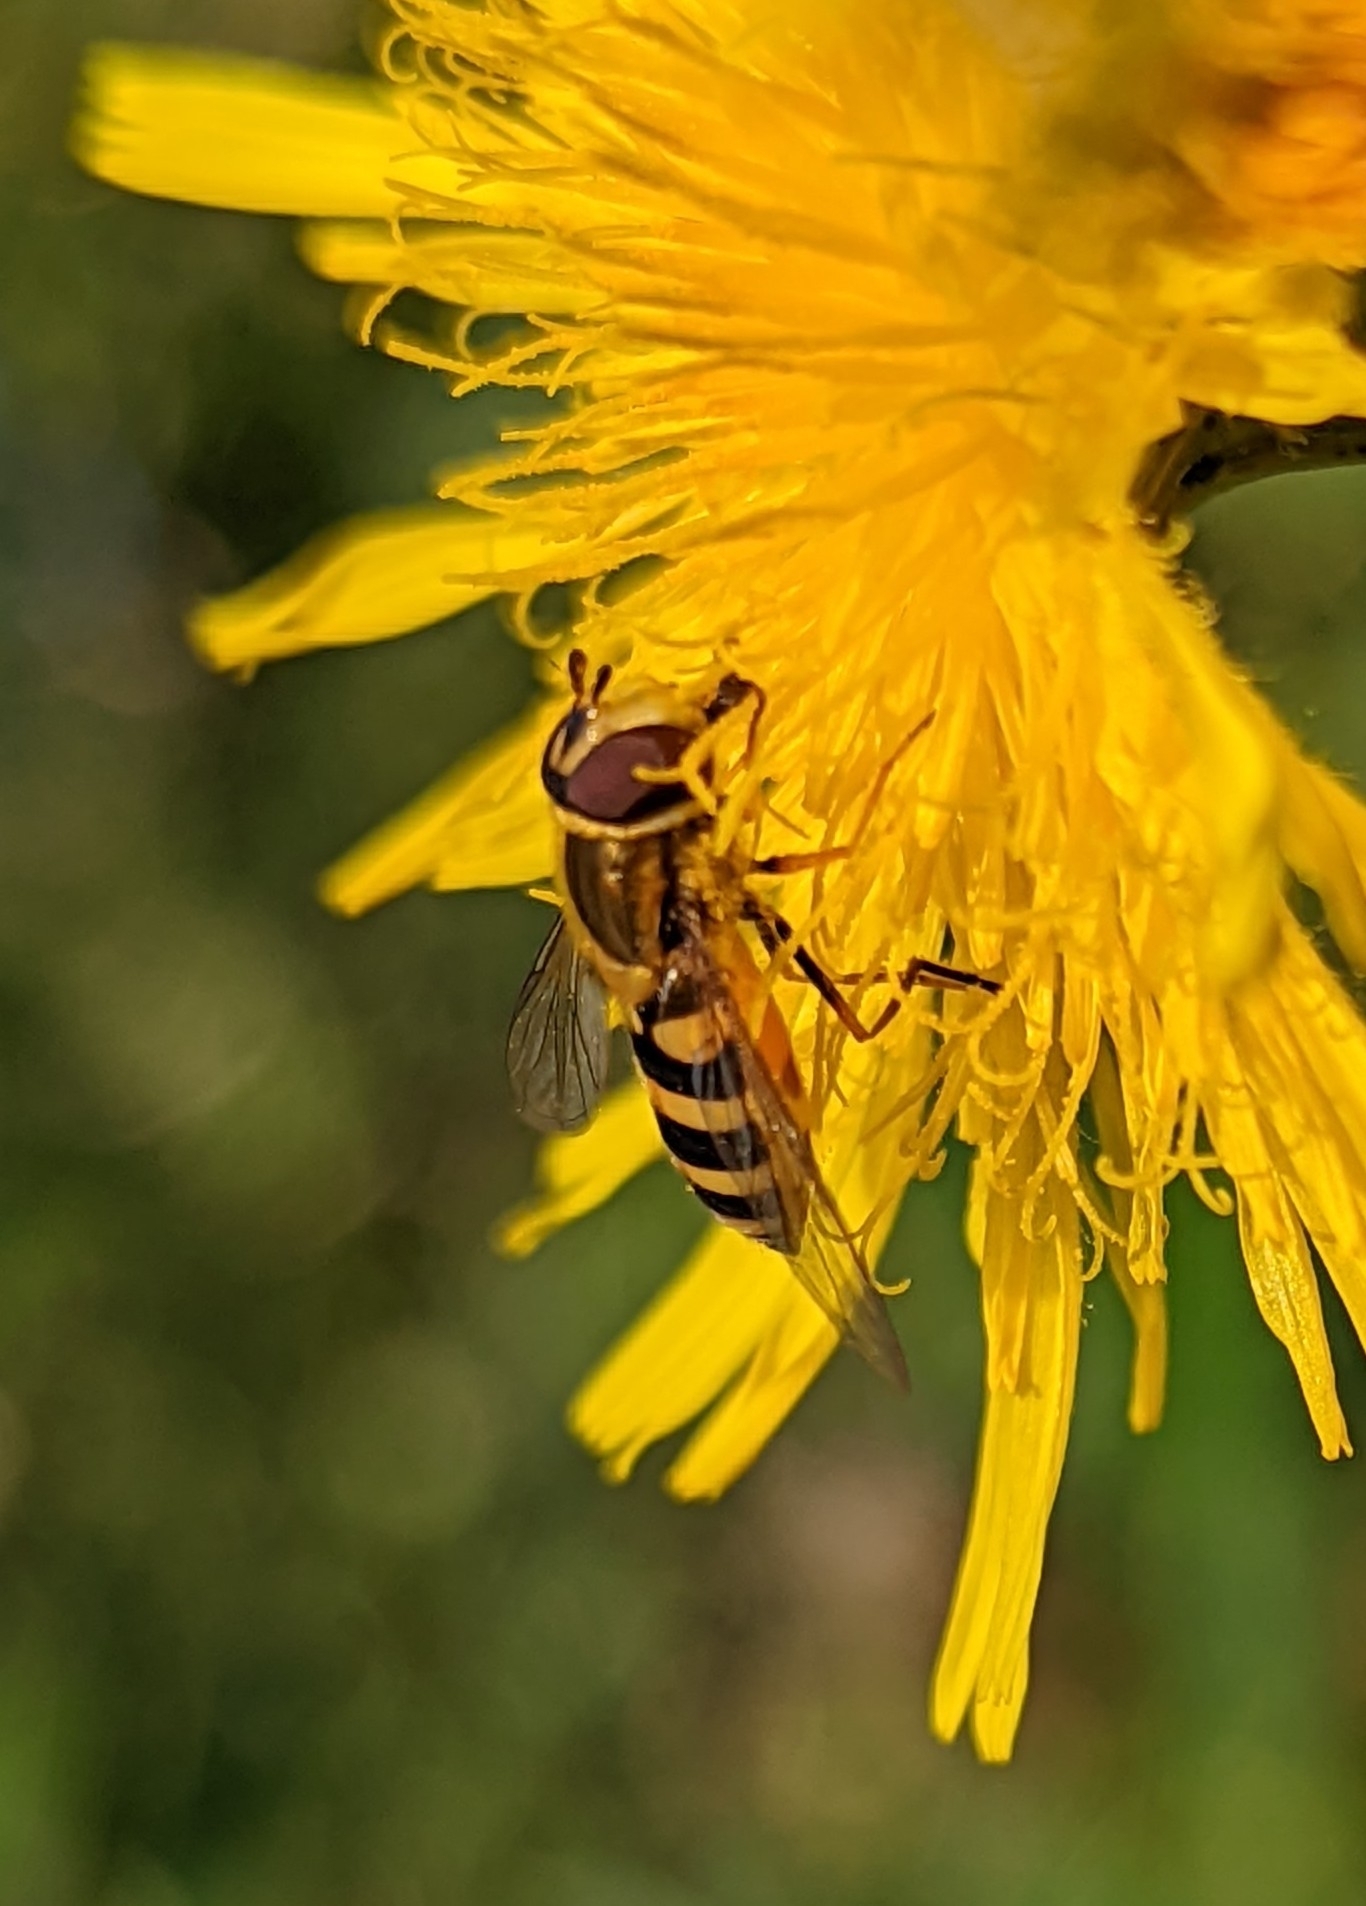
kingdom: Animalia
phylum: Arthropoda
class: Insecta
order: Diptera
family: Syrphidae
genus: Syrphus
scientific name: Syrphus
